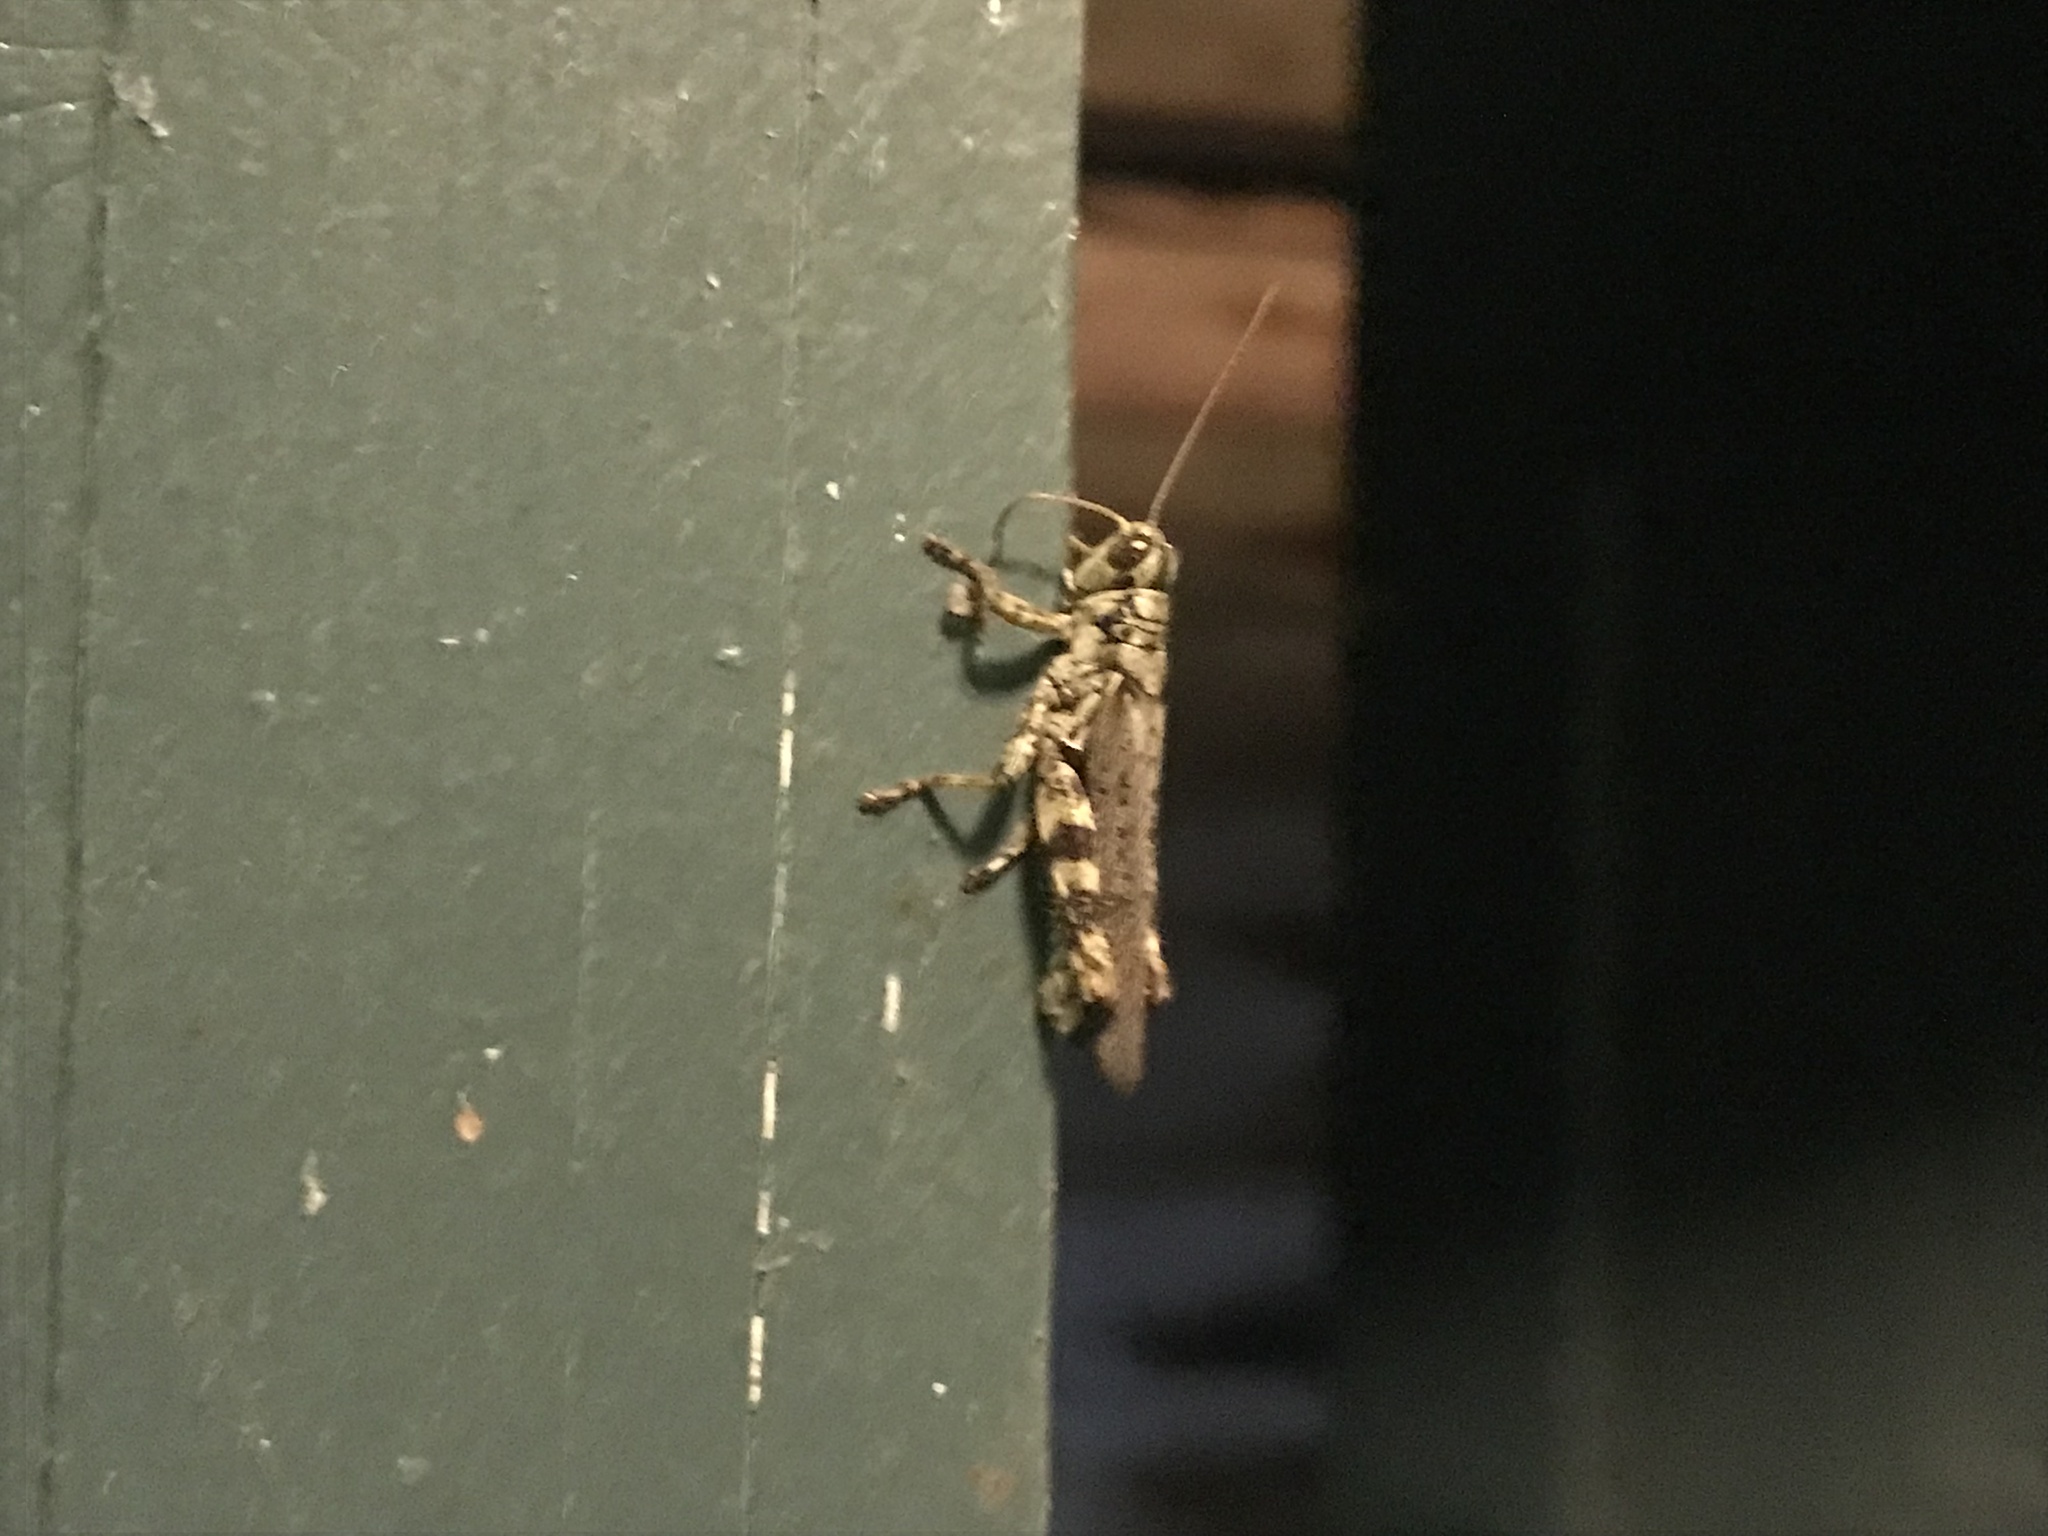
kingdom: Animalia
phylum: Arthropoda
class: Insecta
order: Orthoptera
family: Acrididae
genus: Melanoplus
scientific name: Melanoplus punctulatus
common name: Pine-tree spur-throat grasshopper
